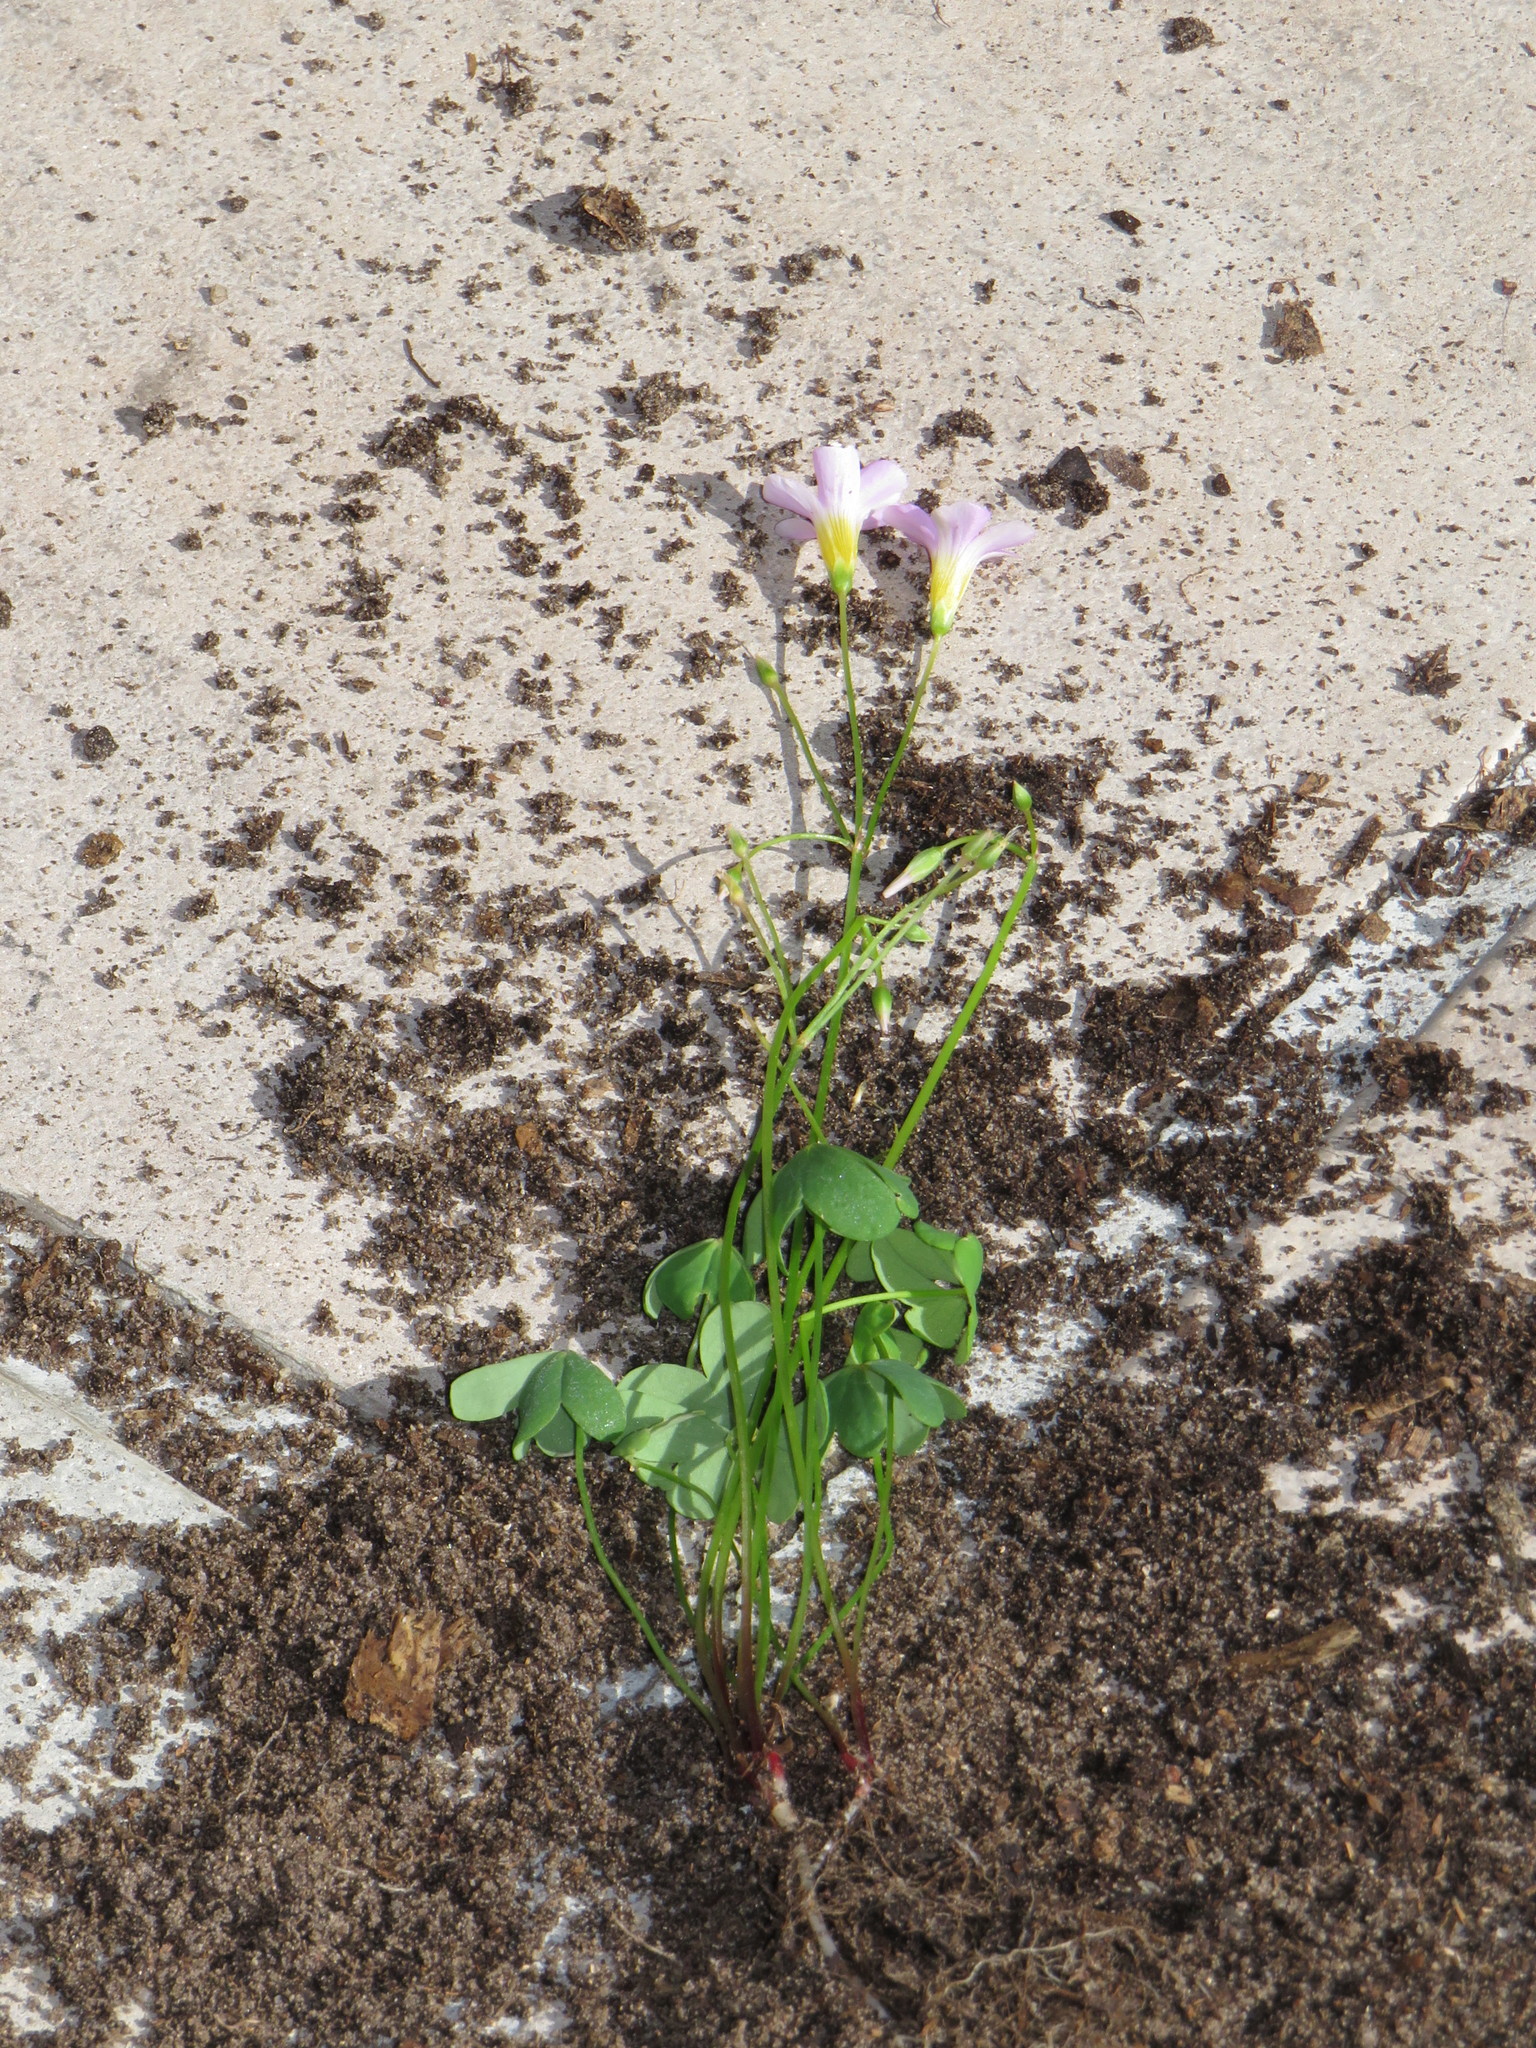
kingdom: Plantae
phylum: Tracheophyta
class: Magnoliopsida
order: Oxalidales
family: Oxalidaceae
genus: Oxalis
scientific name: Oxalis caprina
